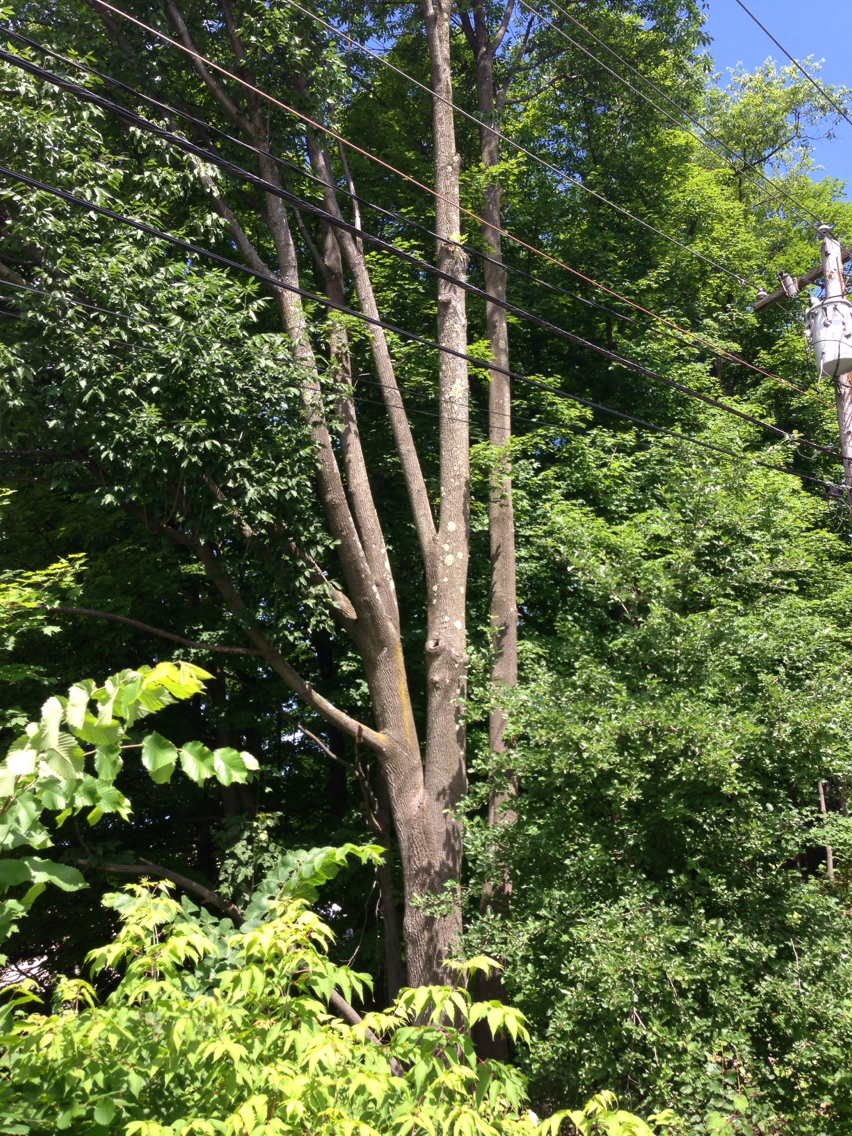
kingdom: Plantae
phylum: Tracheophyta
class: Magnoliopsida
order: Lamiales
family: Oleaceae
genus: Fraxinus
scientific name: Fraxinus americana
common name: White ash
